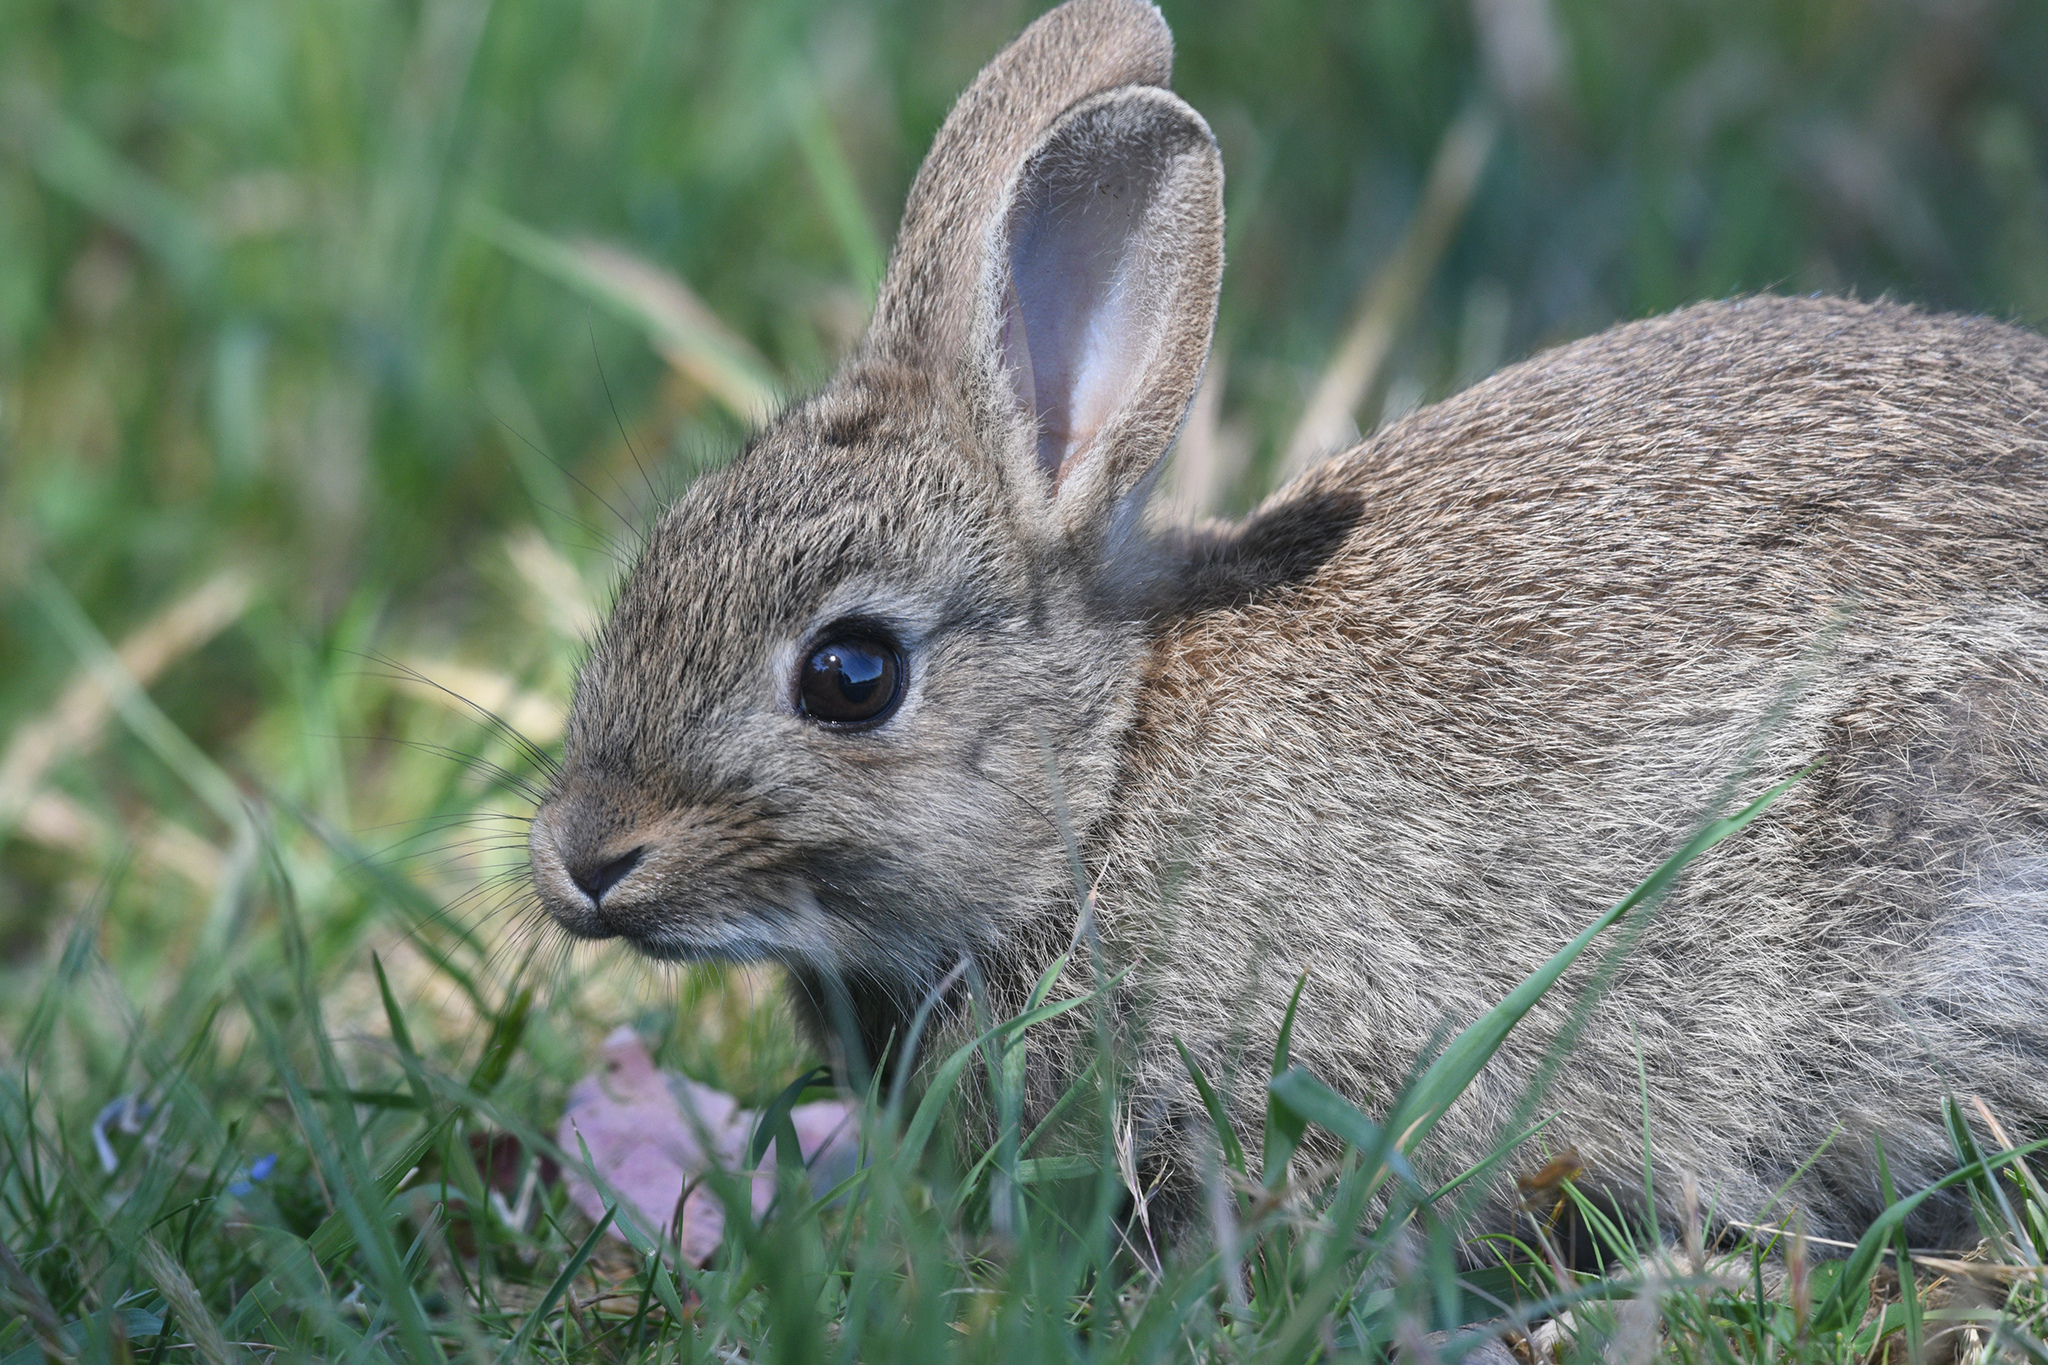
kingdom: Animalia
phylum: Chordata
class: Mammalia
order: Lagomorpha
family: Leporidae
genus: Oryctolagus
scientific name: Oryctolagus cuniculus
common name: European rabbit
